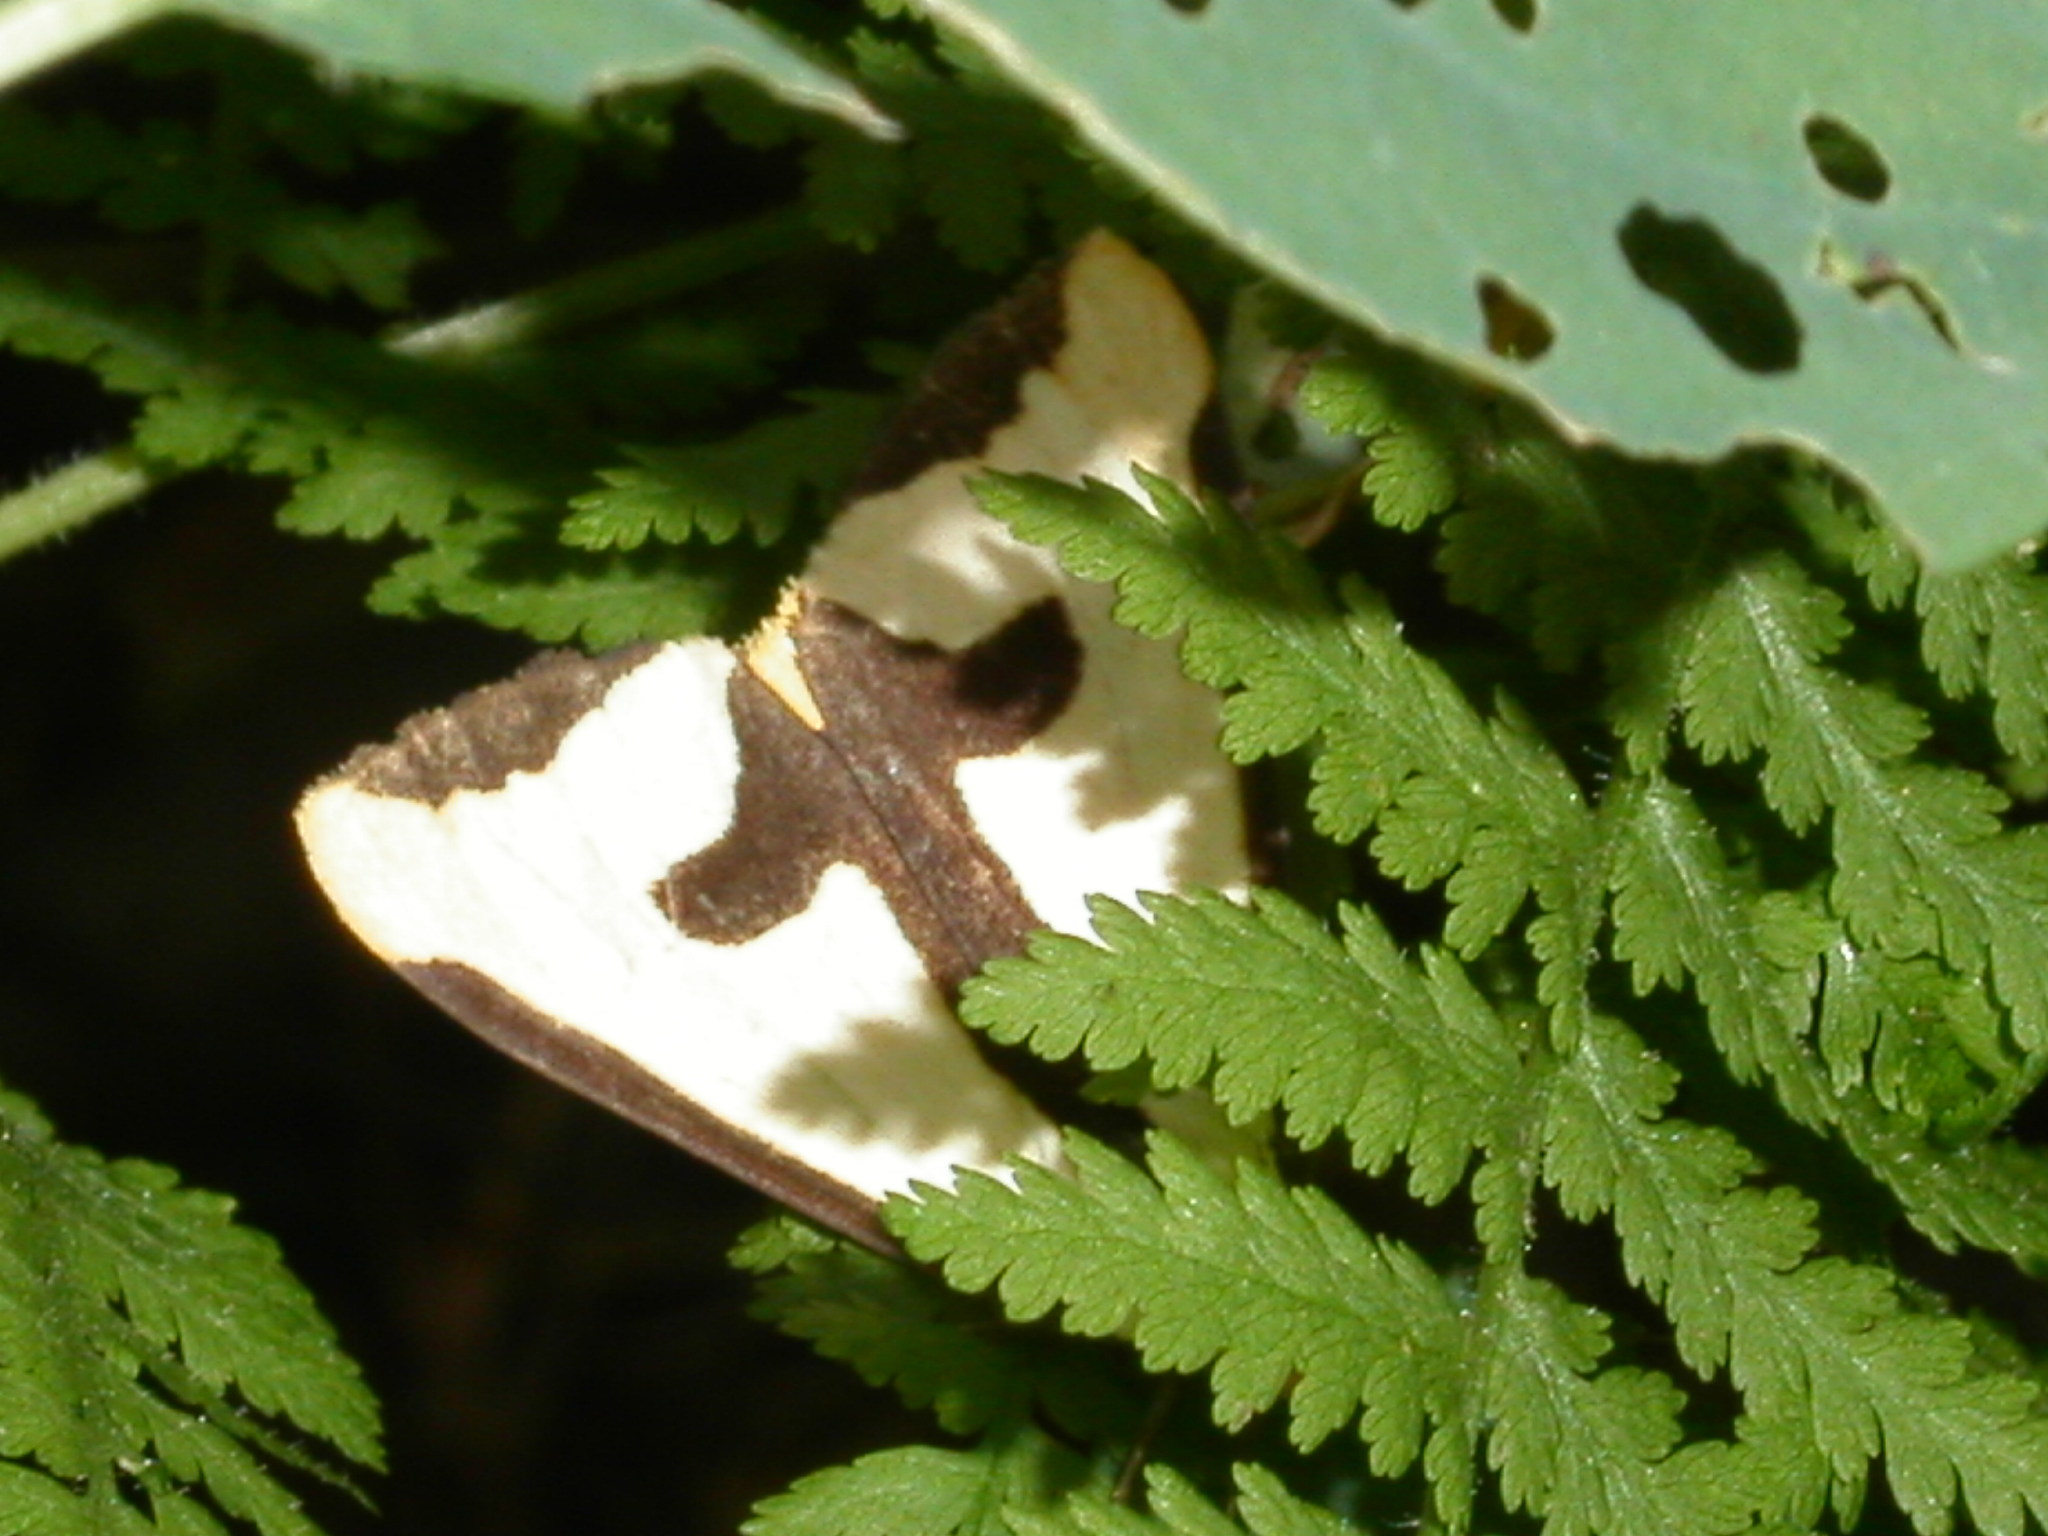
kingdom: Animalia
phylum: Arthropoda
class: Insecta
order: Lepidoptera
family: Erebidae
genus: Haploa
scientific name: Haploa clymene
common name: Clymene moth
